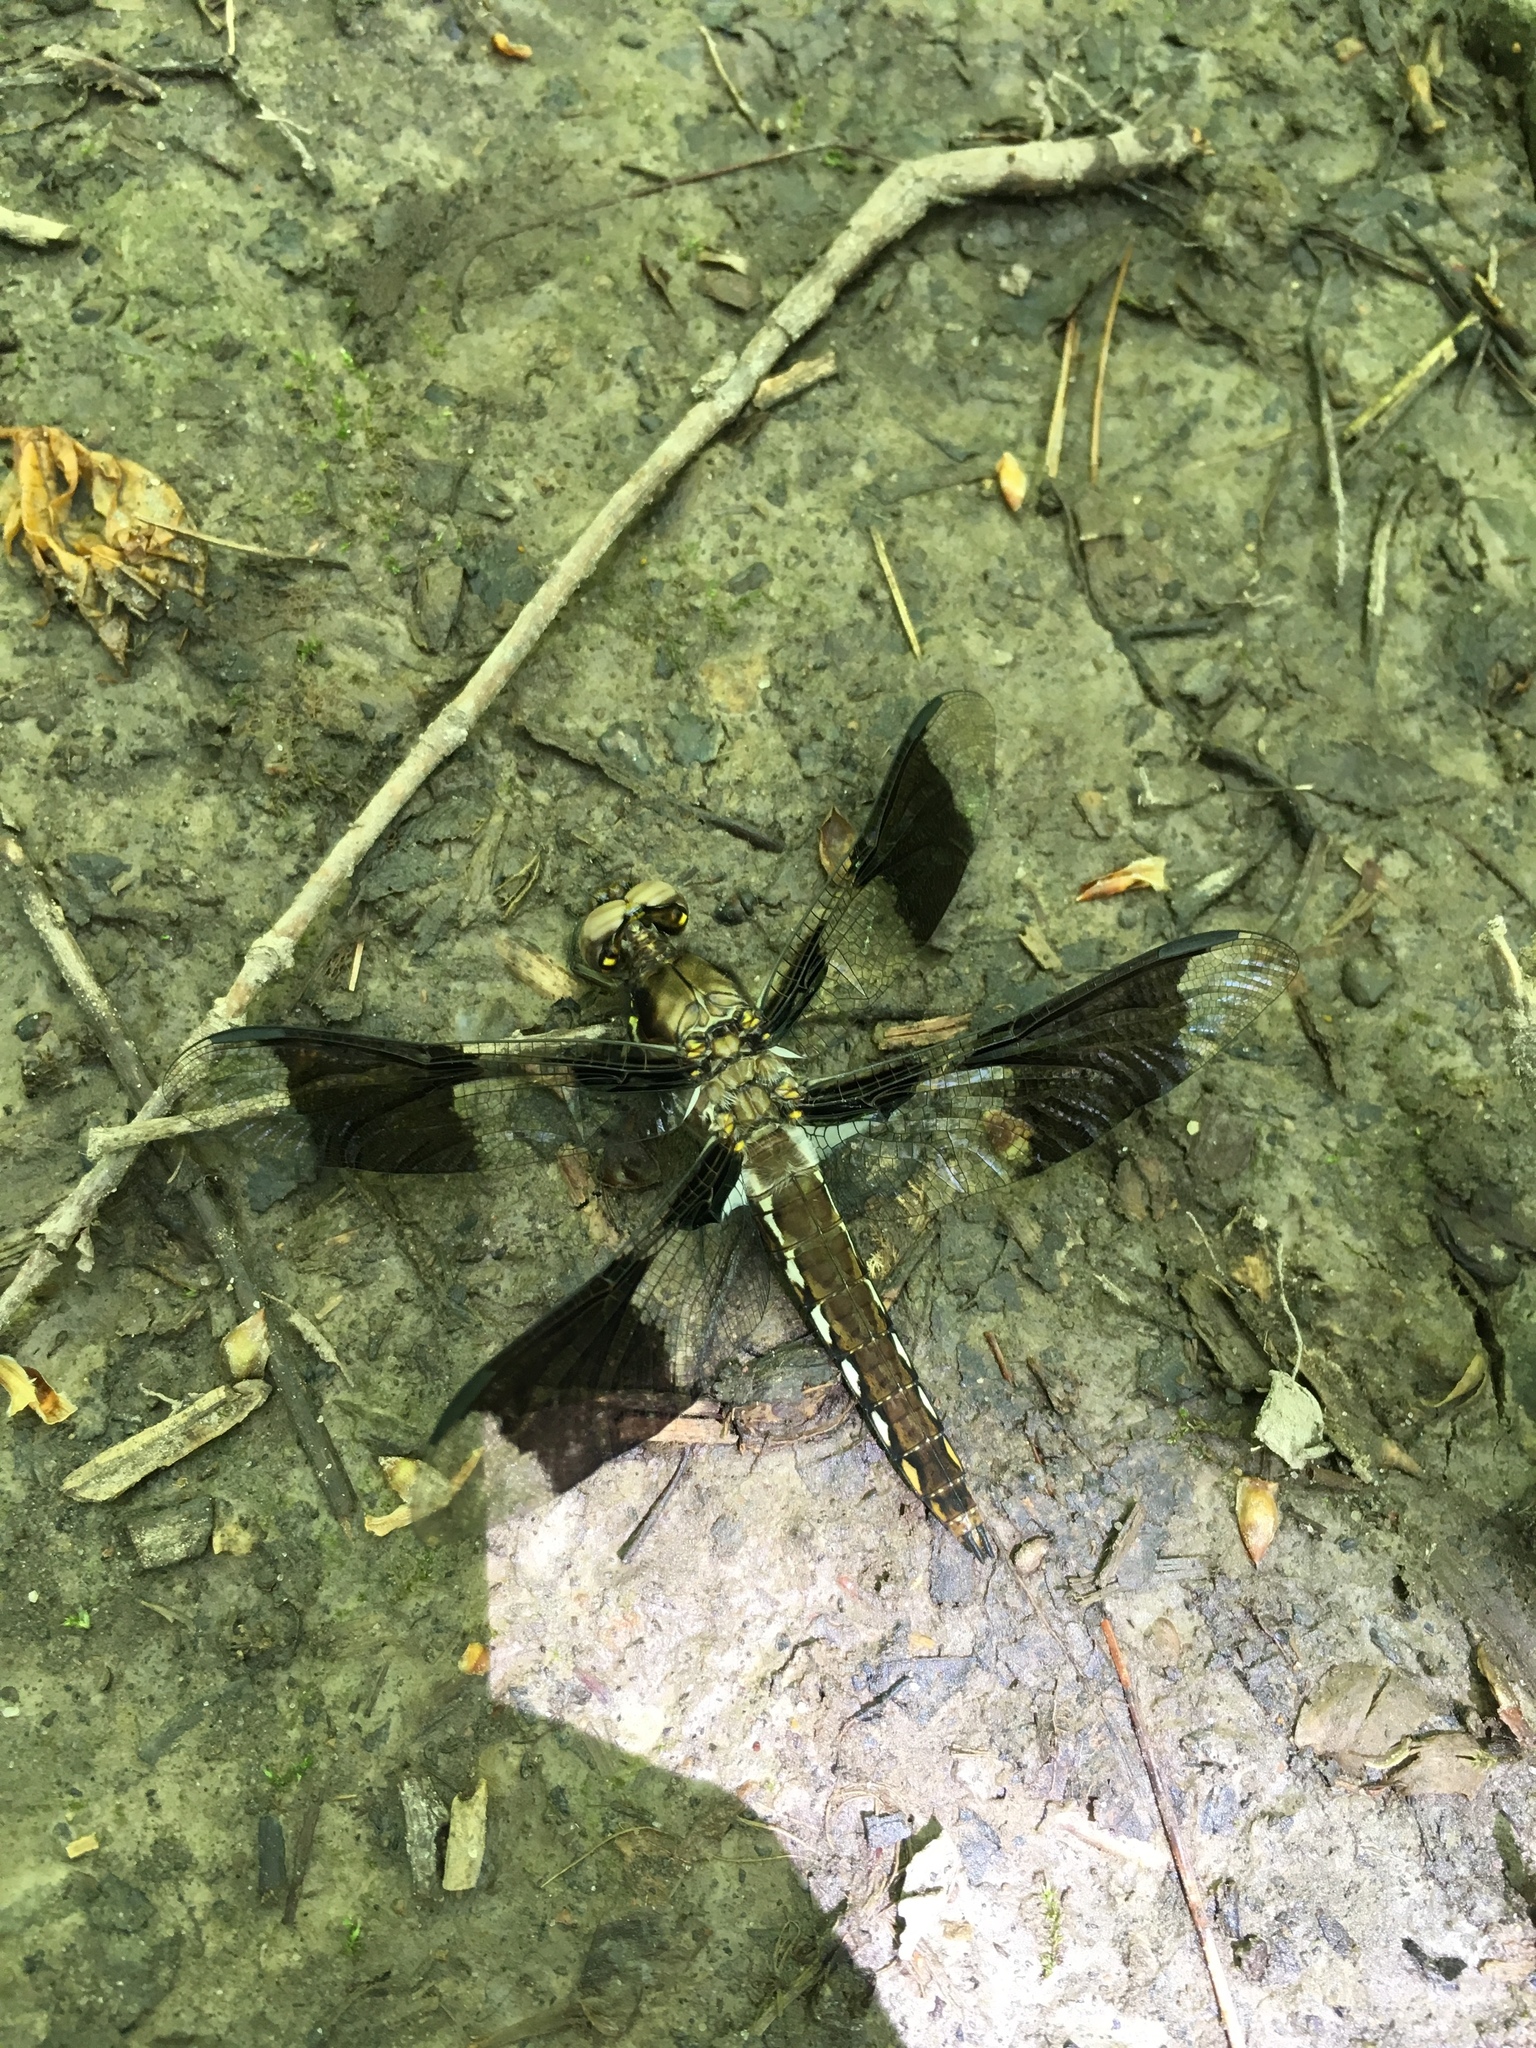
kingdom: Animalia
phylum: Arthropoda
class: Insecta
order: Odonata
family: Libellulidae
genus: Plathemis
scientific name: Plathemis lydia
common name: Common whitetail
